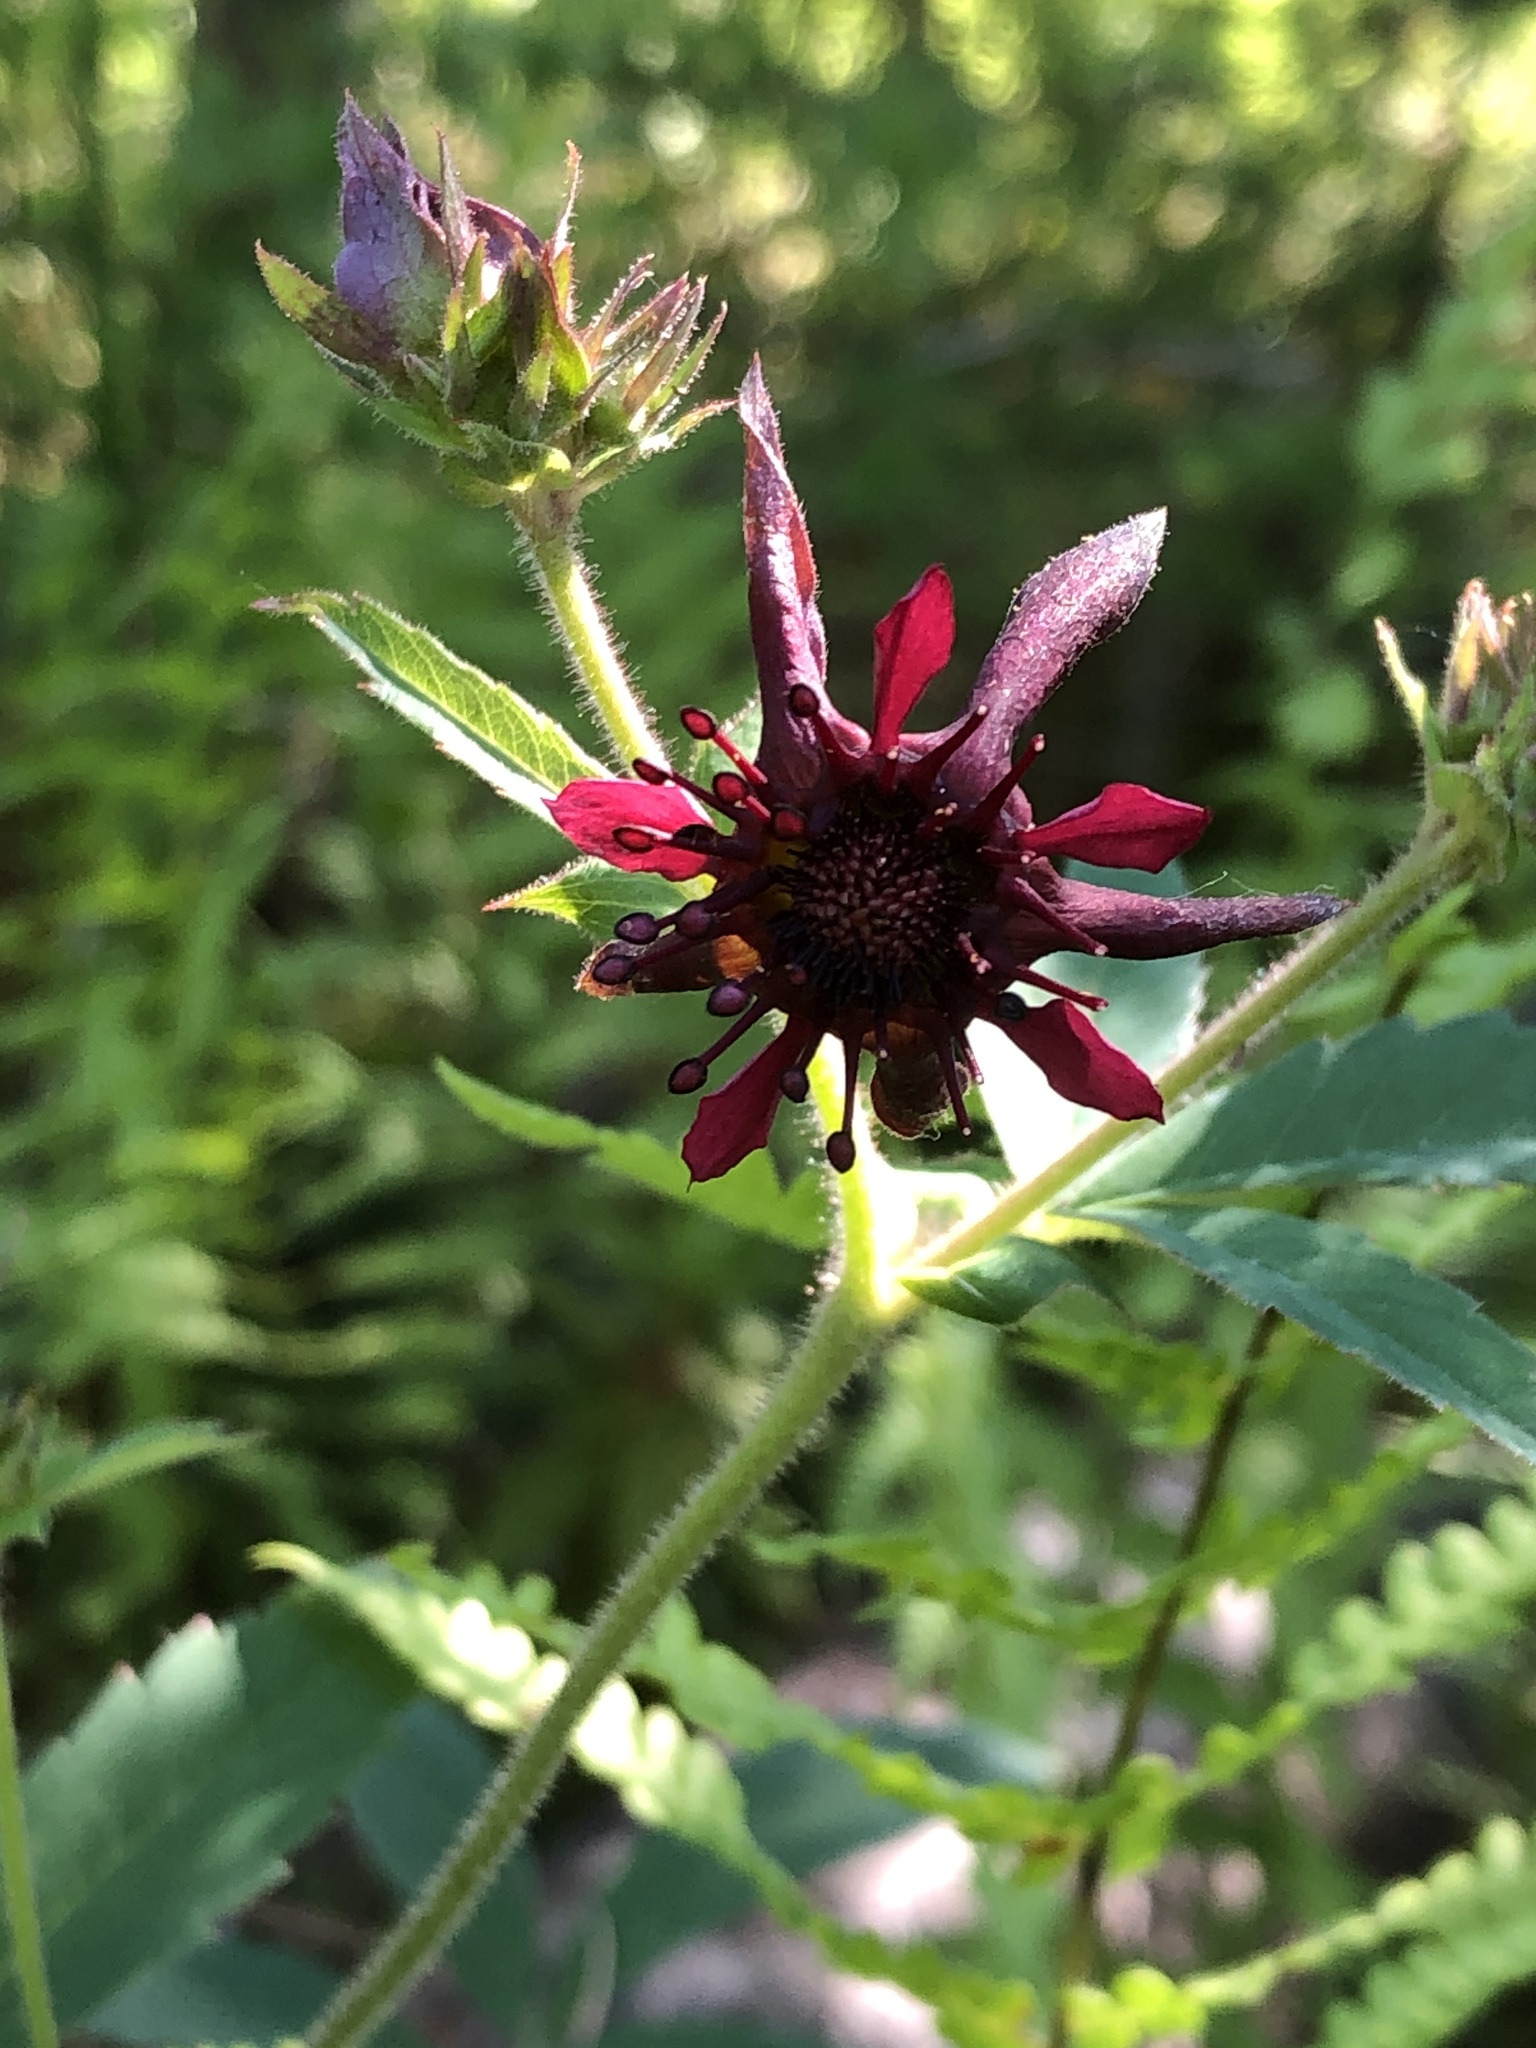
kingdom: Plantae
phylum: Tracheophyta
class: Magnoliopsida
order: Rosales
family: Rosaceae
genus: Comarum
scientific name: Comarum palustre
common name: Marsh cinquefoil
